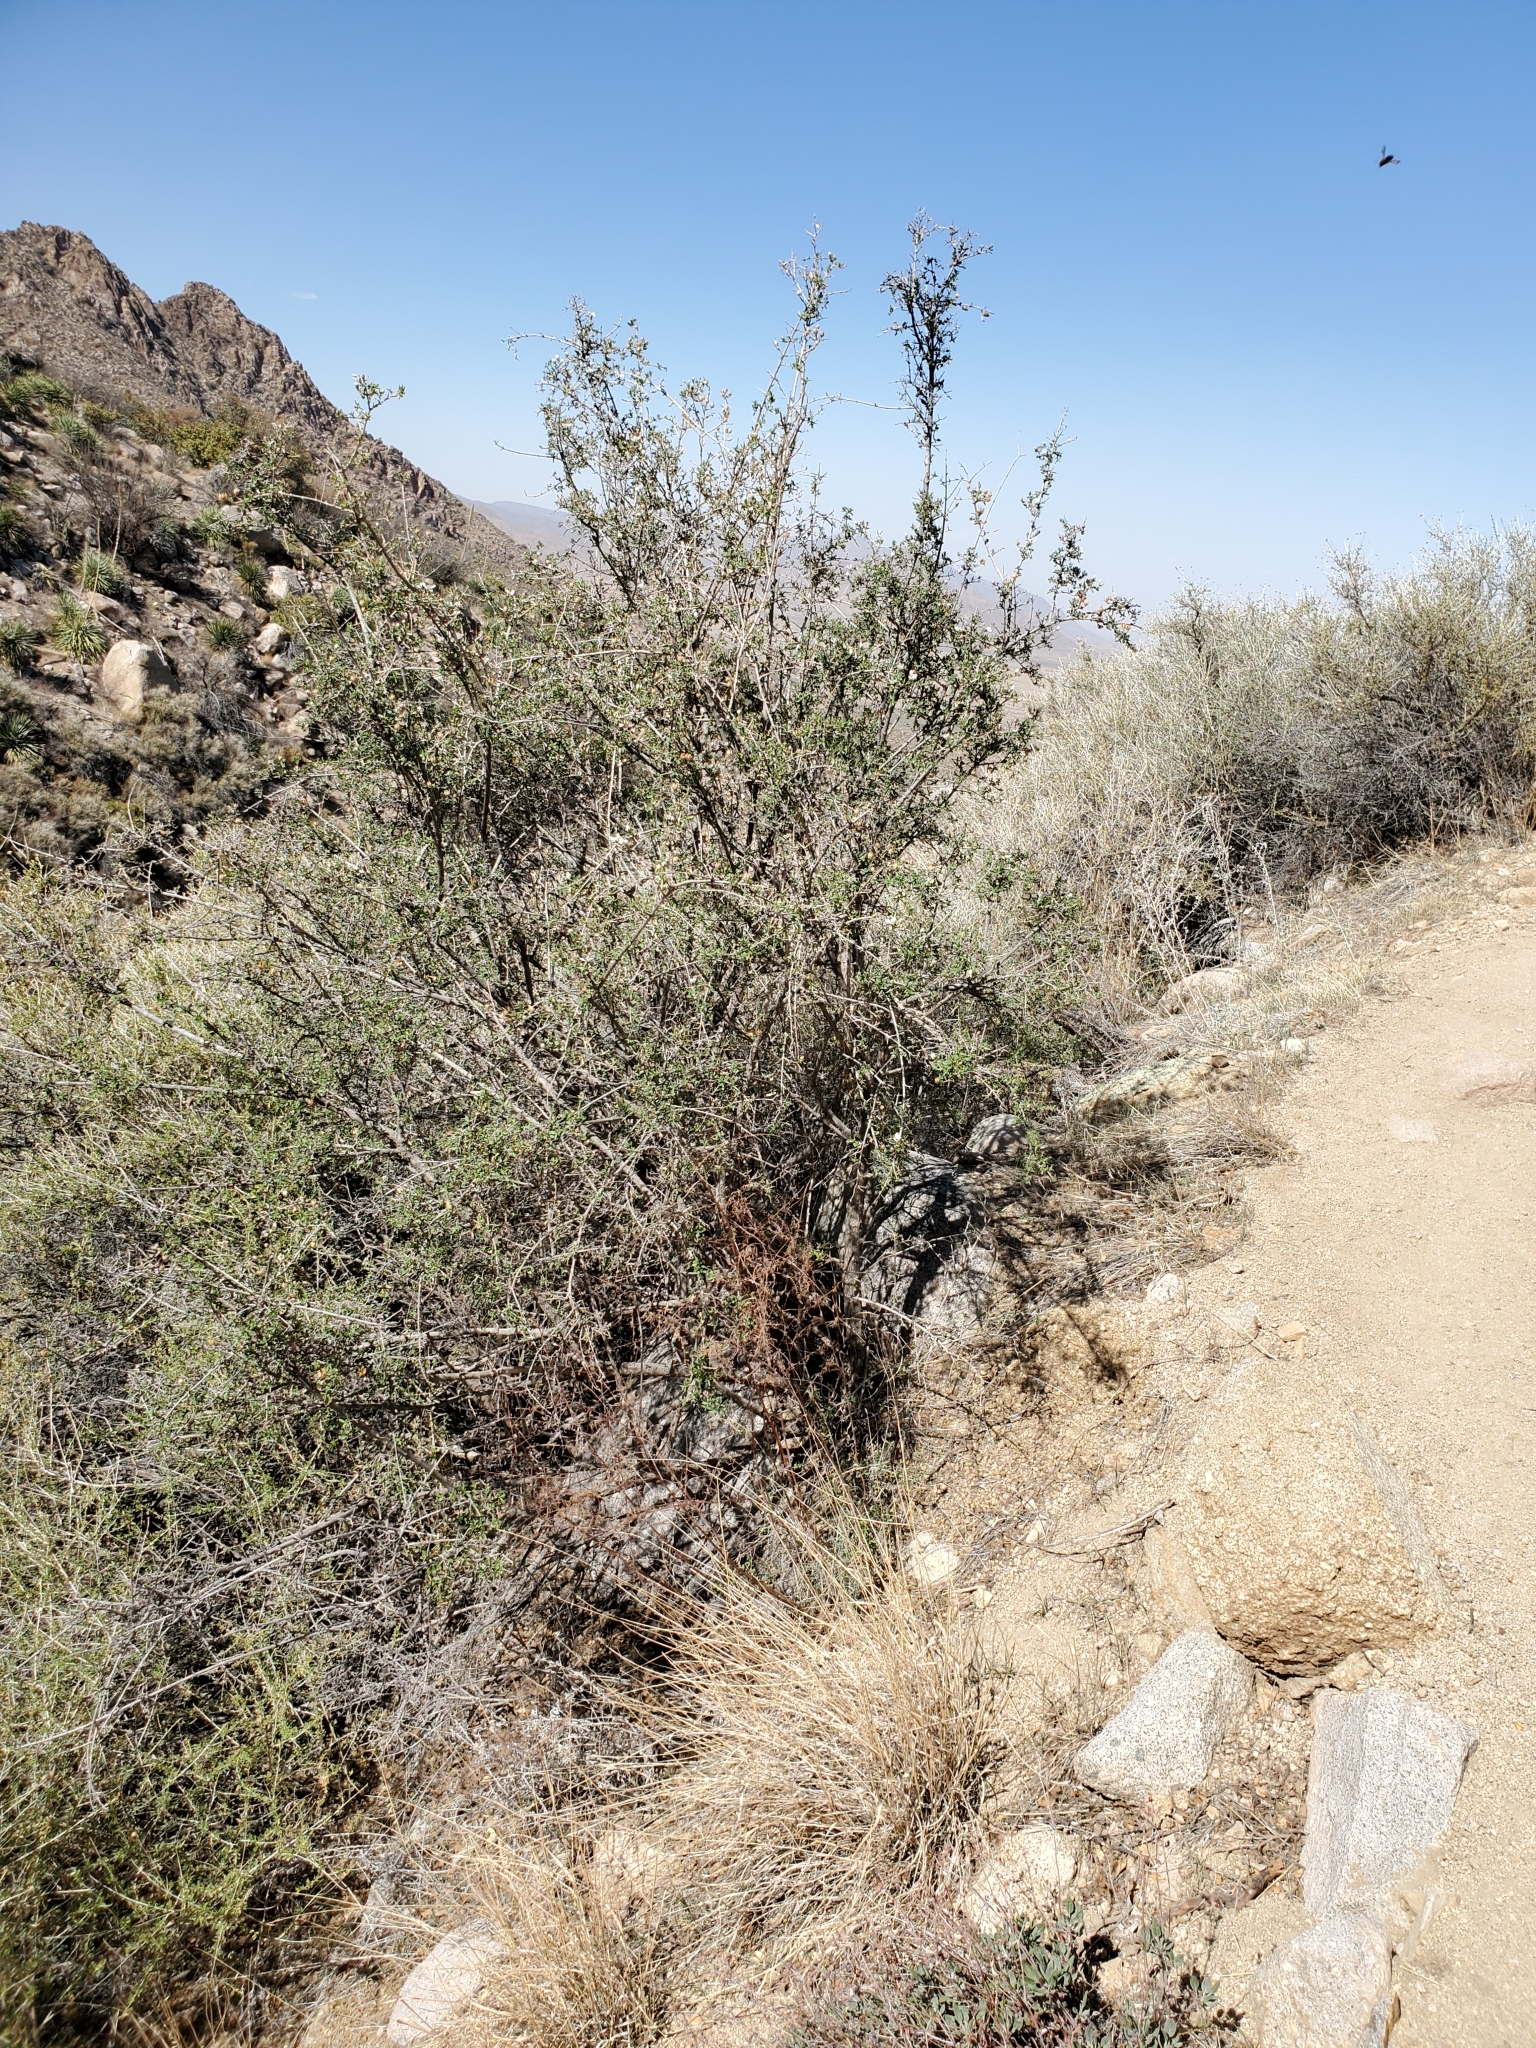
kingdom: Plantae
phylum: Tracheophyta
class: Magnoliopsida
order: Cornales
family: Hydrangeaceae
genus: Fendlera
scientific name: Fendlera rupicola
